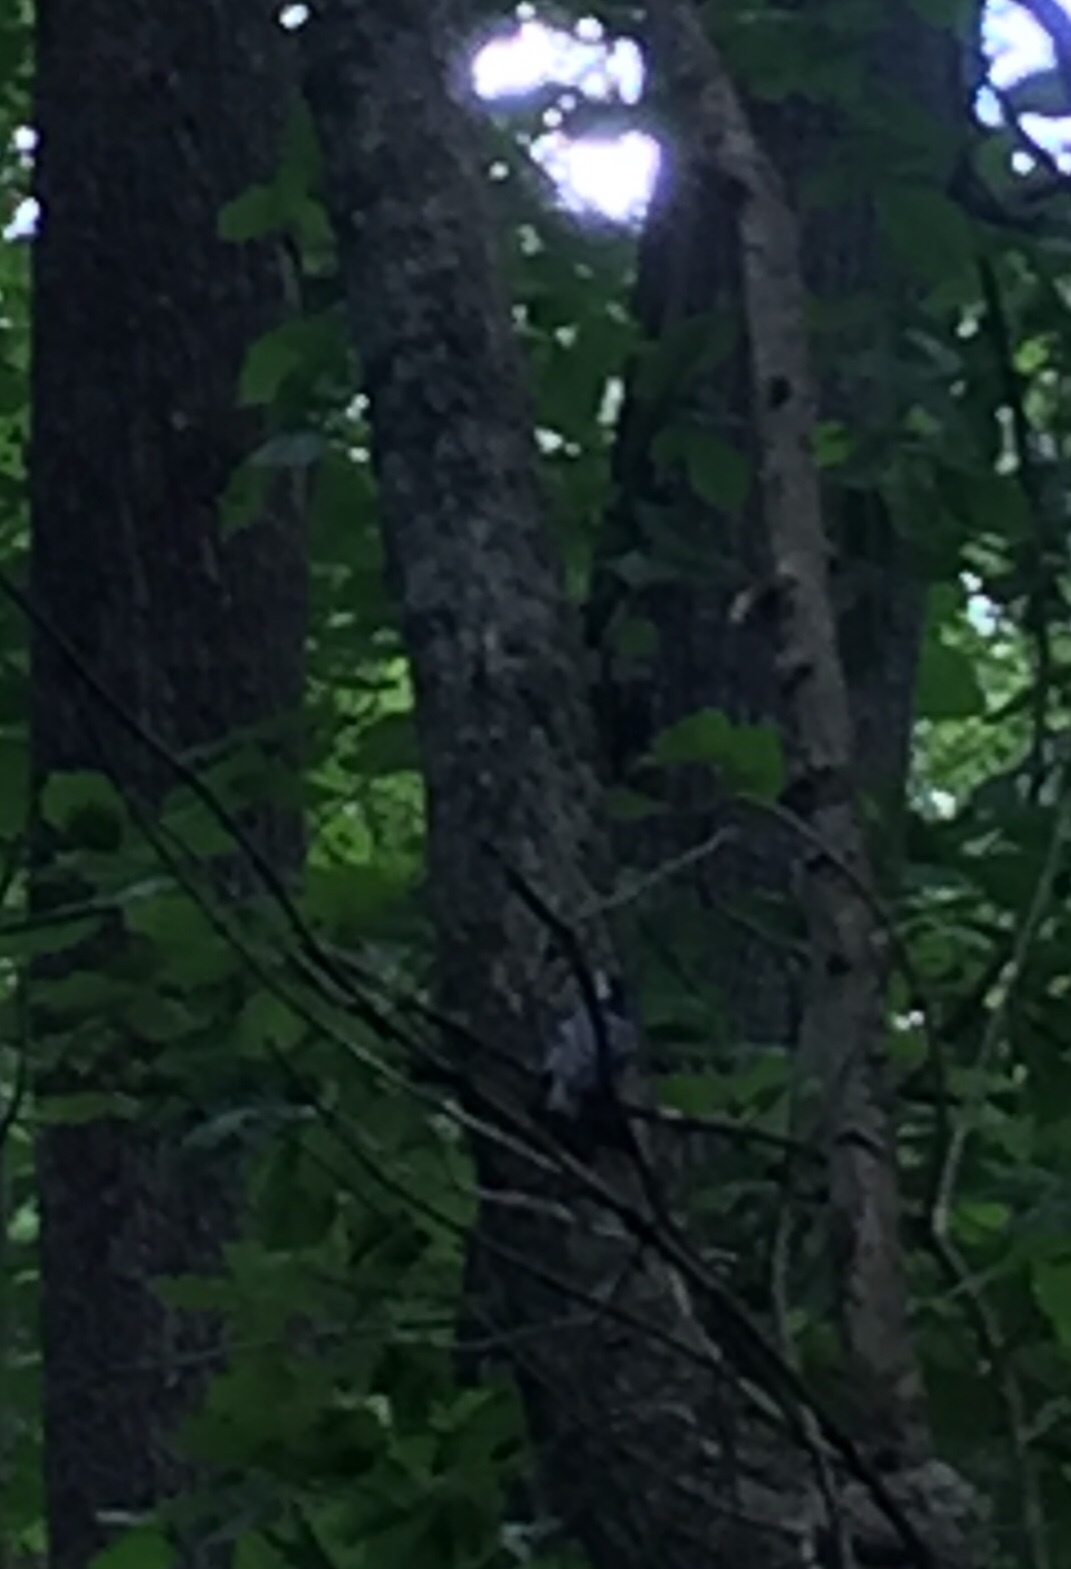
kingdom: Animalia
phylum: Chordata
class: Aves
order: Passeriformes
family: Sittidae
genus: Sitta
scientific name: Sitta carolinensis
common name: White-breasted nuthatch
